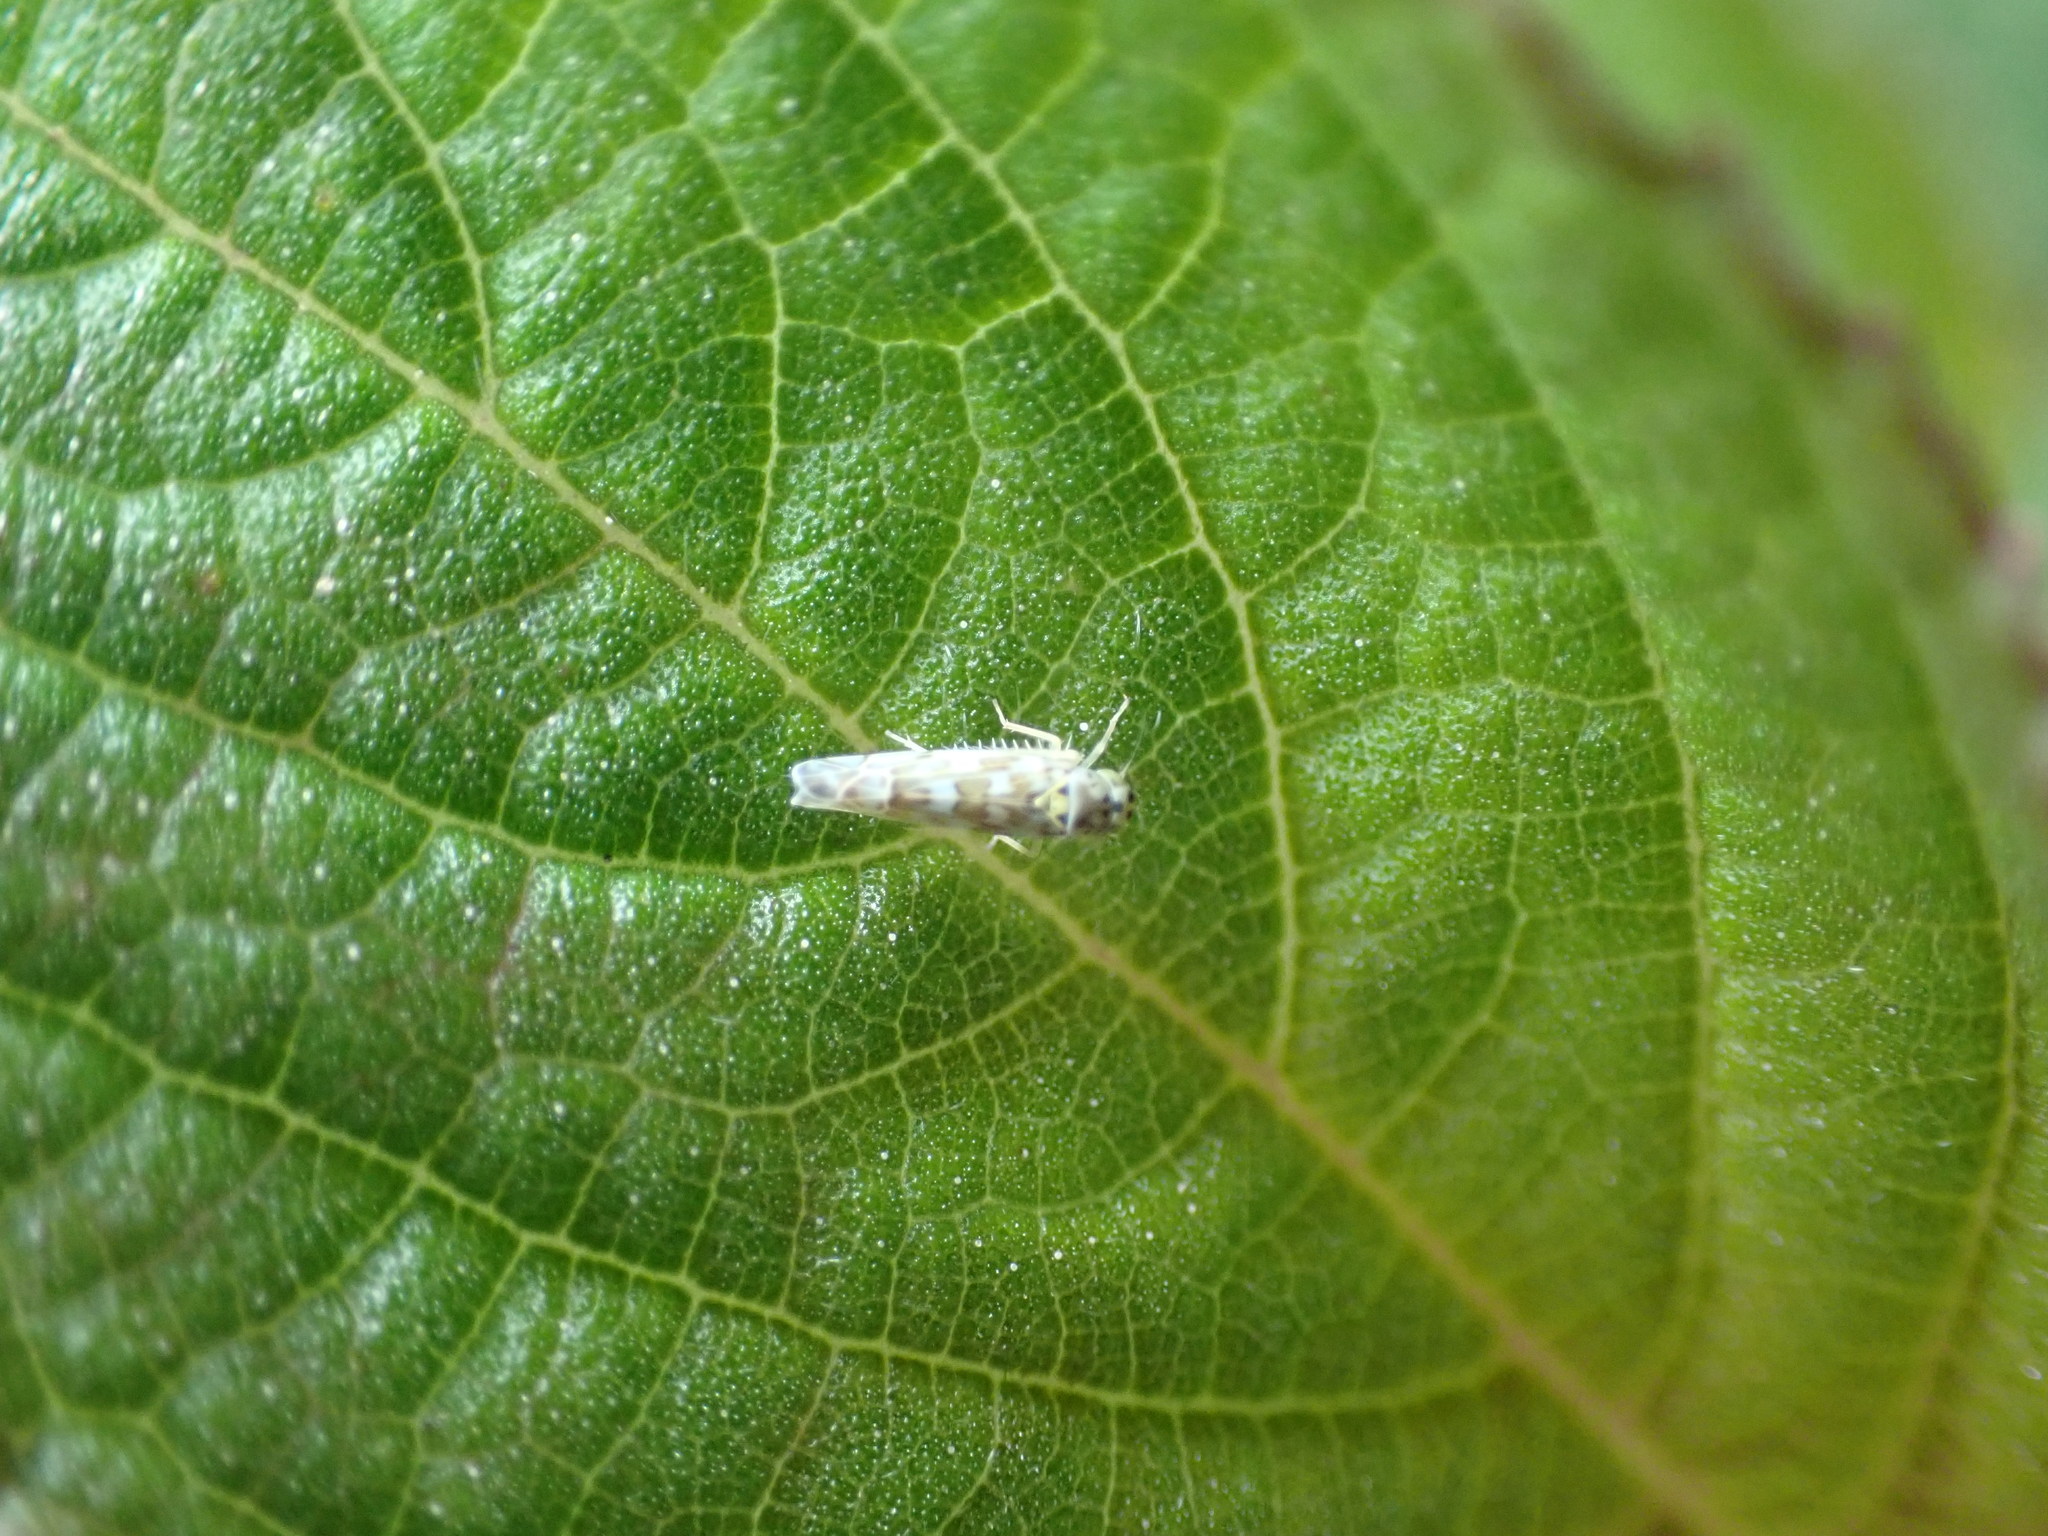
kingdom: Animalia
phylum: Arthropoda
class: Insecta
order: Hemiptera
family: Cicadellidae
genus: Eupteryx
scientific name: Eupteryx melissae
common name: Herb leafhopper
